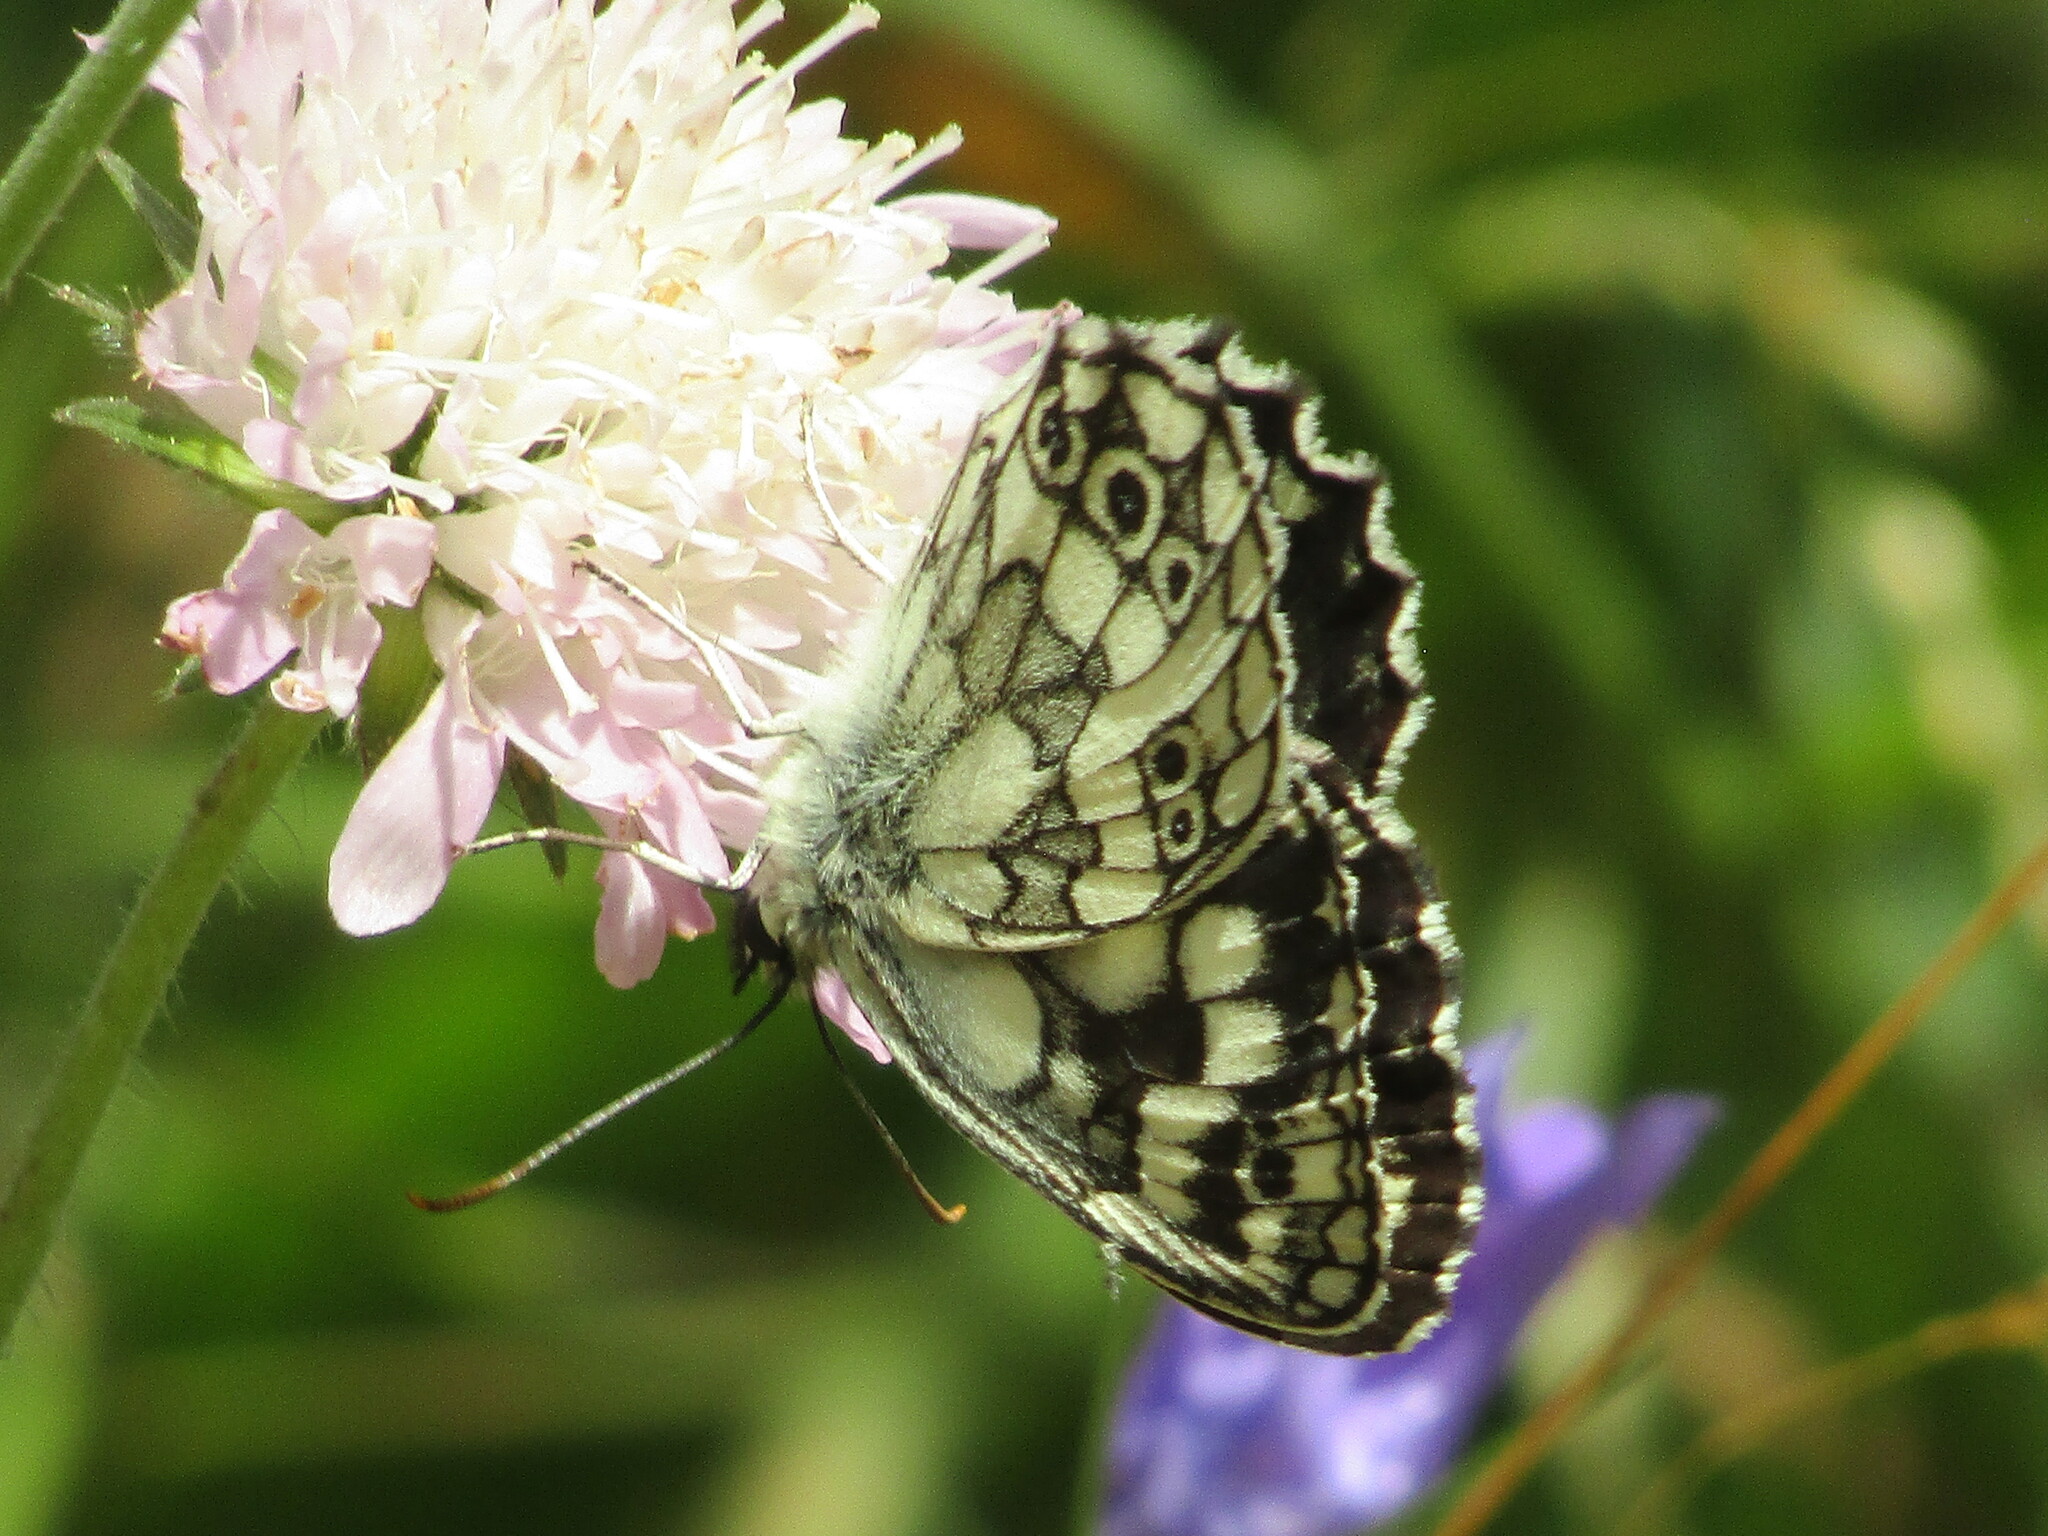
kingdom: Animalia
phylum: Arthropoda
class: Insecta
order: Lepidoptera
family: Nymphalidae
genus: Melanargia
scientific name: Melanargia galathea
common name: Marbled white
